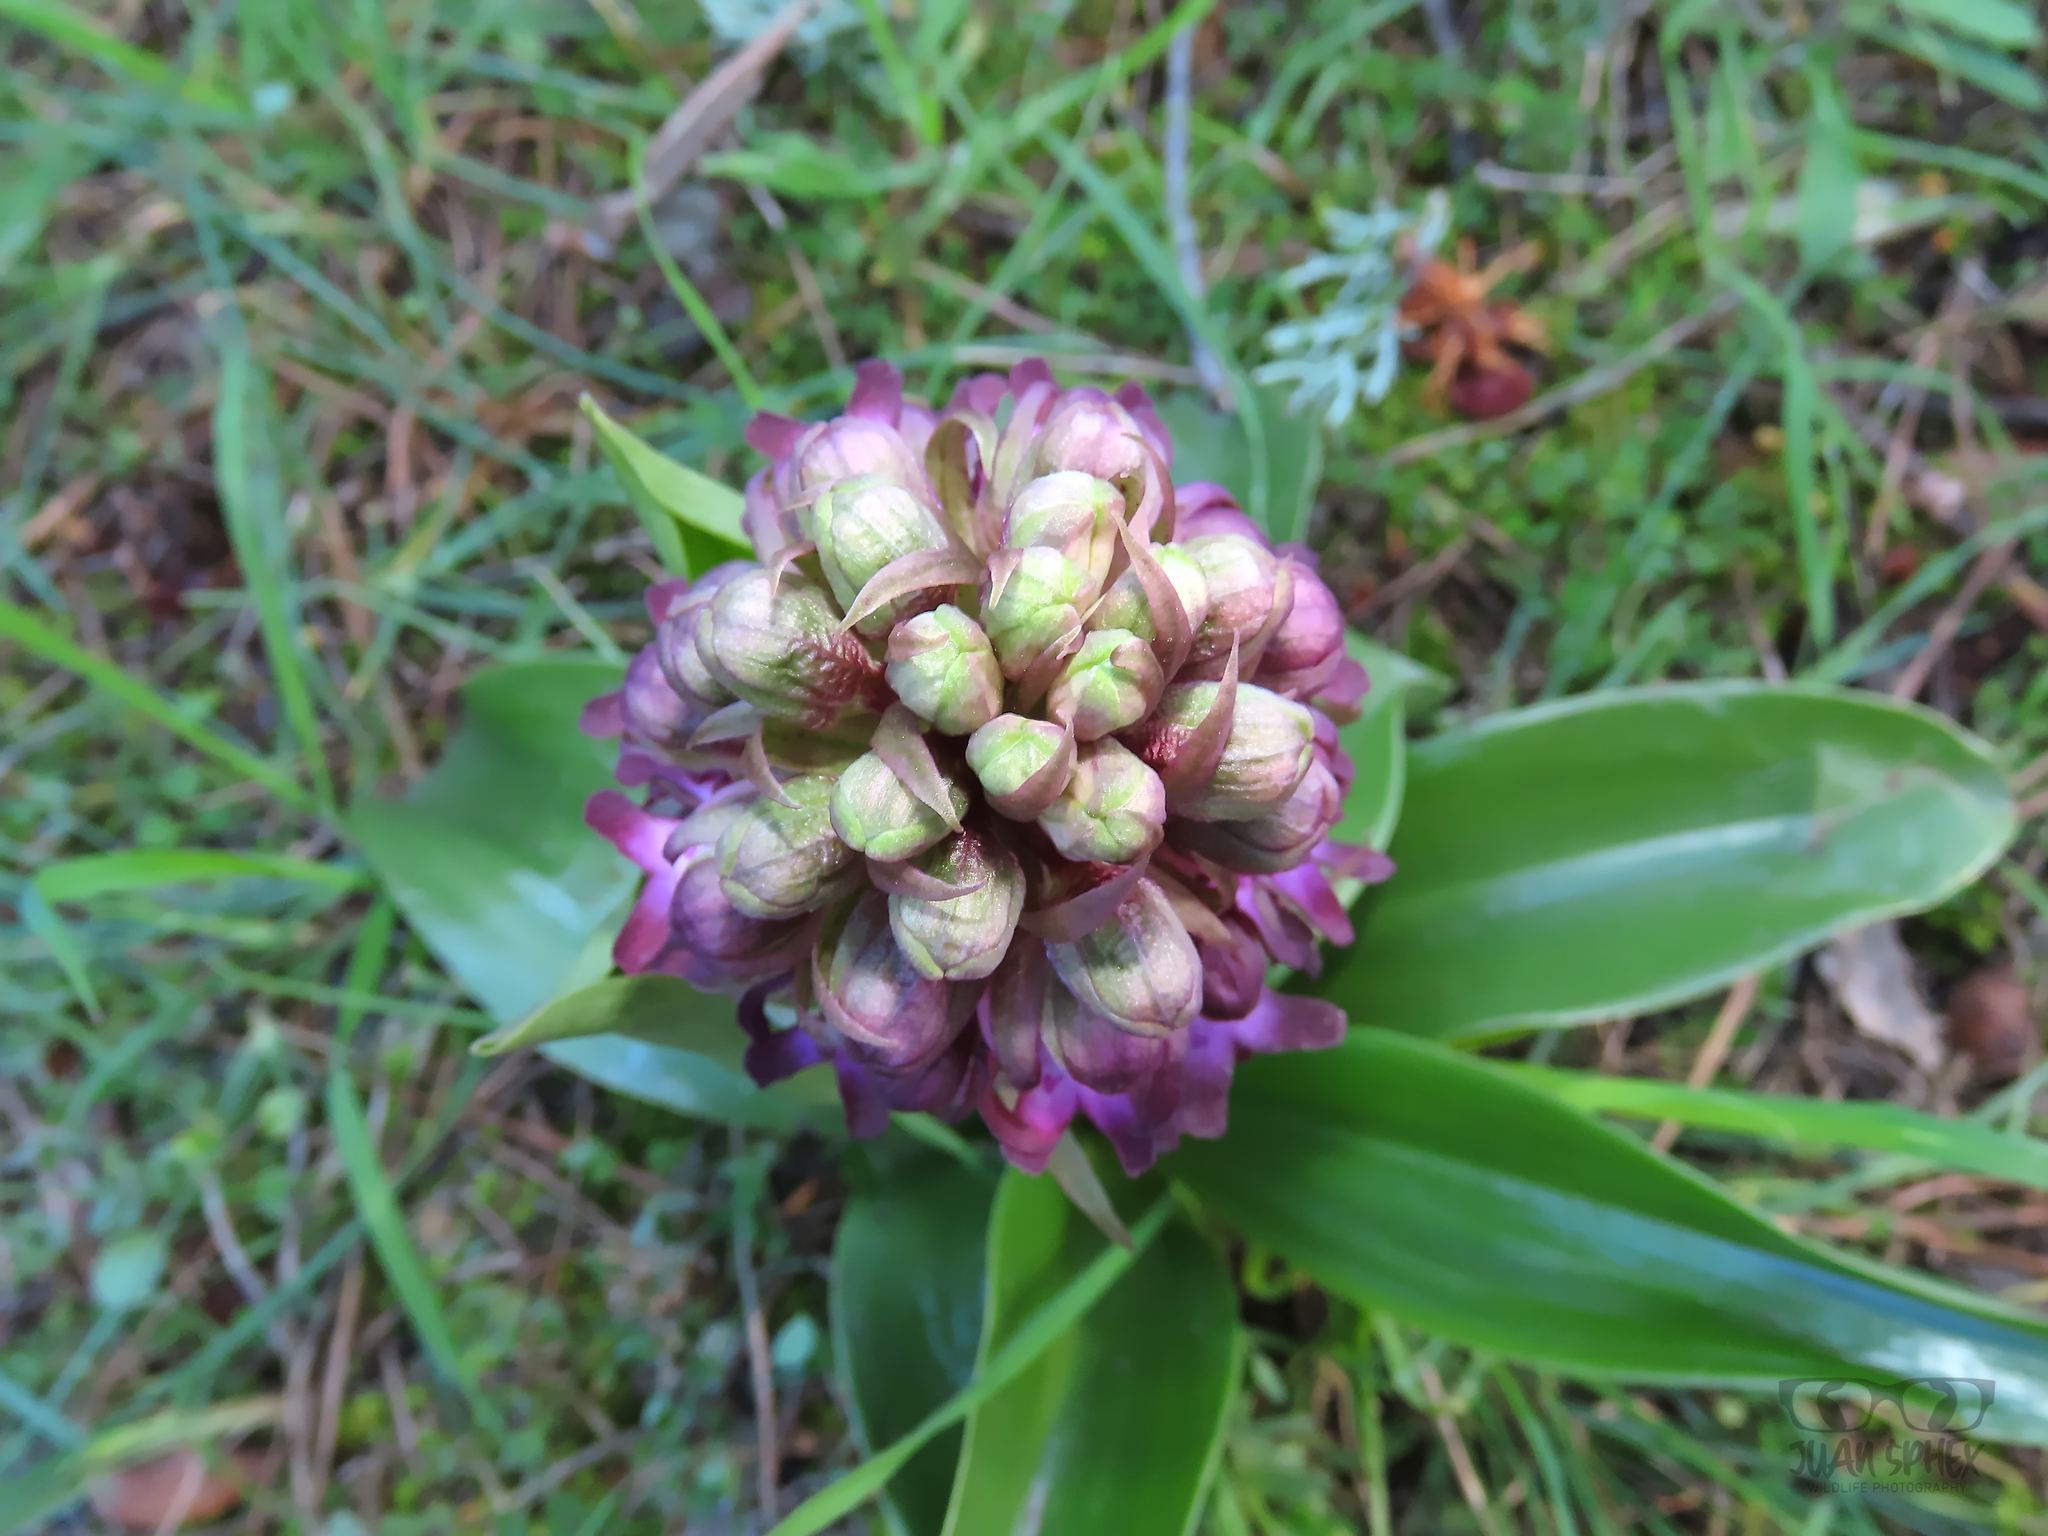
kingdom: Plantae
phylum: Tracheophyta
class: Liliopsida
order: Asparagales
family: Orchidaceae
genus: Himantoglossum
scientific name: Himantoglossum robertianum
